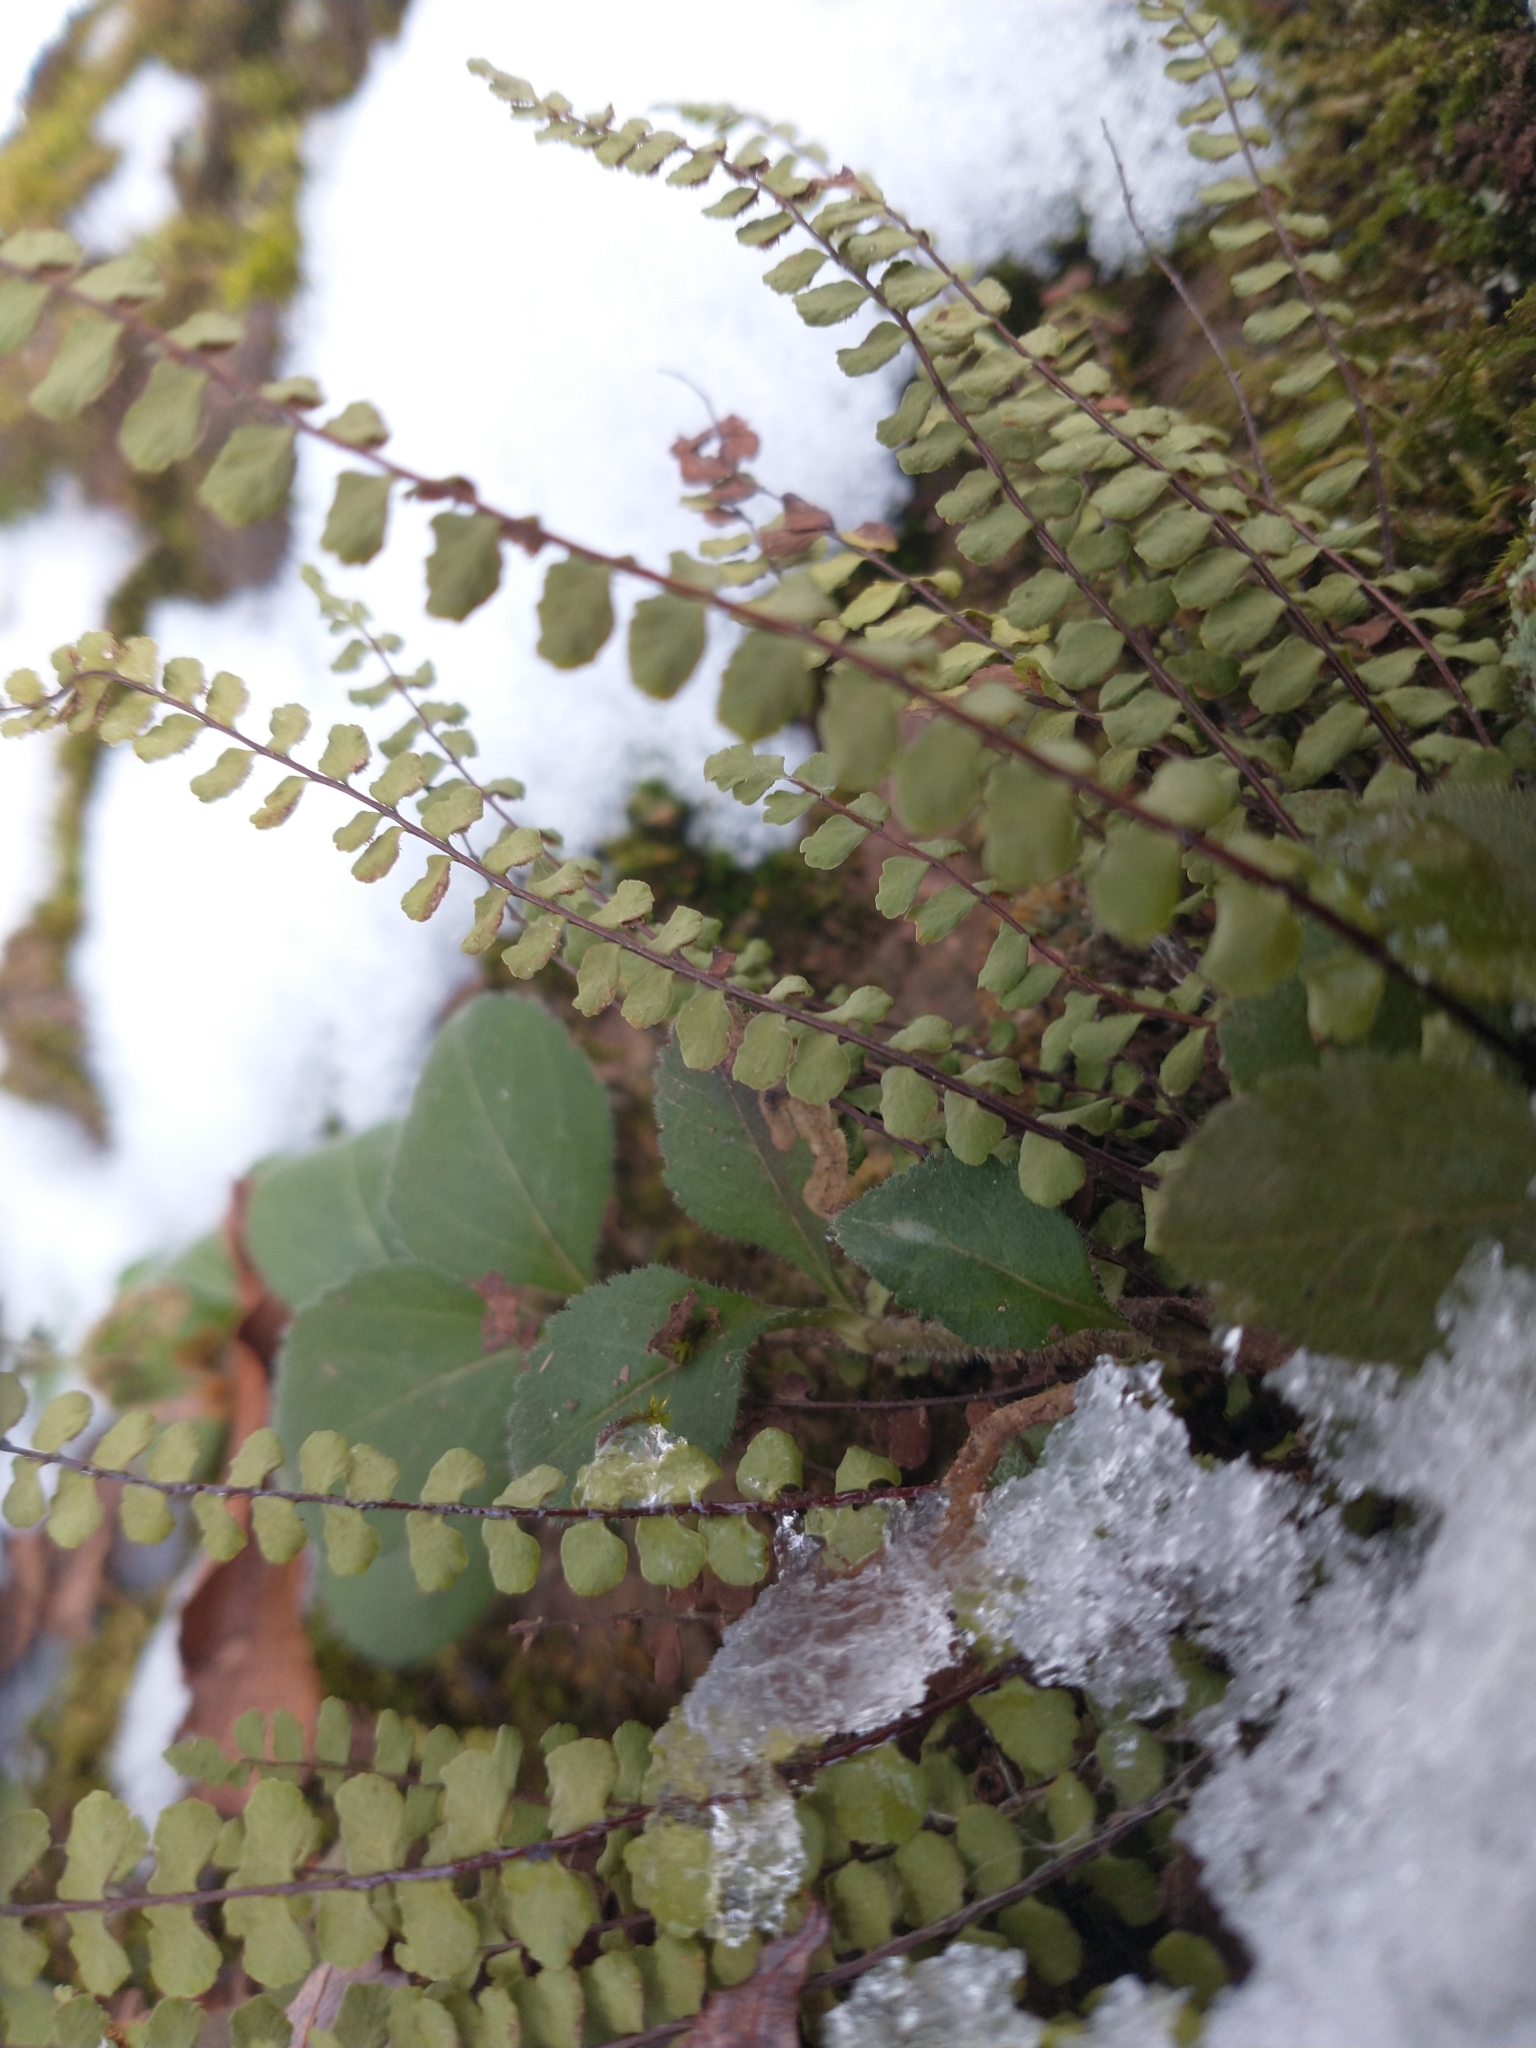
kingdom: Plantae
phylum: Tracheophyta
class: Polypodiopsida
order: Polypodiales
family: Aspleniaceae
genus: Asplenium
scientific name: Asplenium trichomanes
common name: Maidenhair spleenwort
